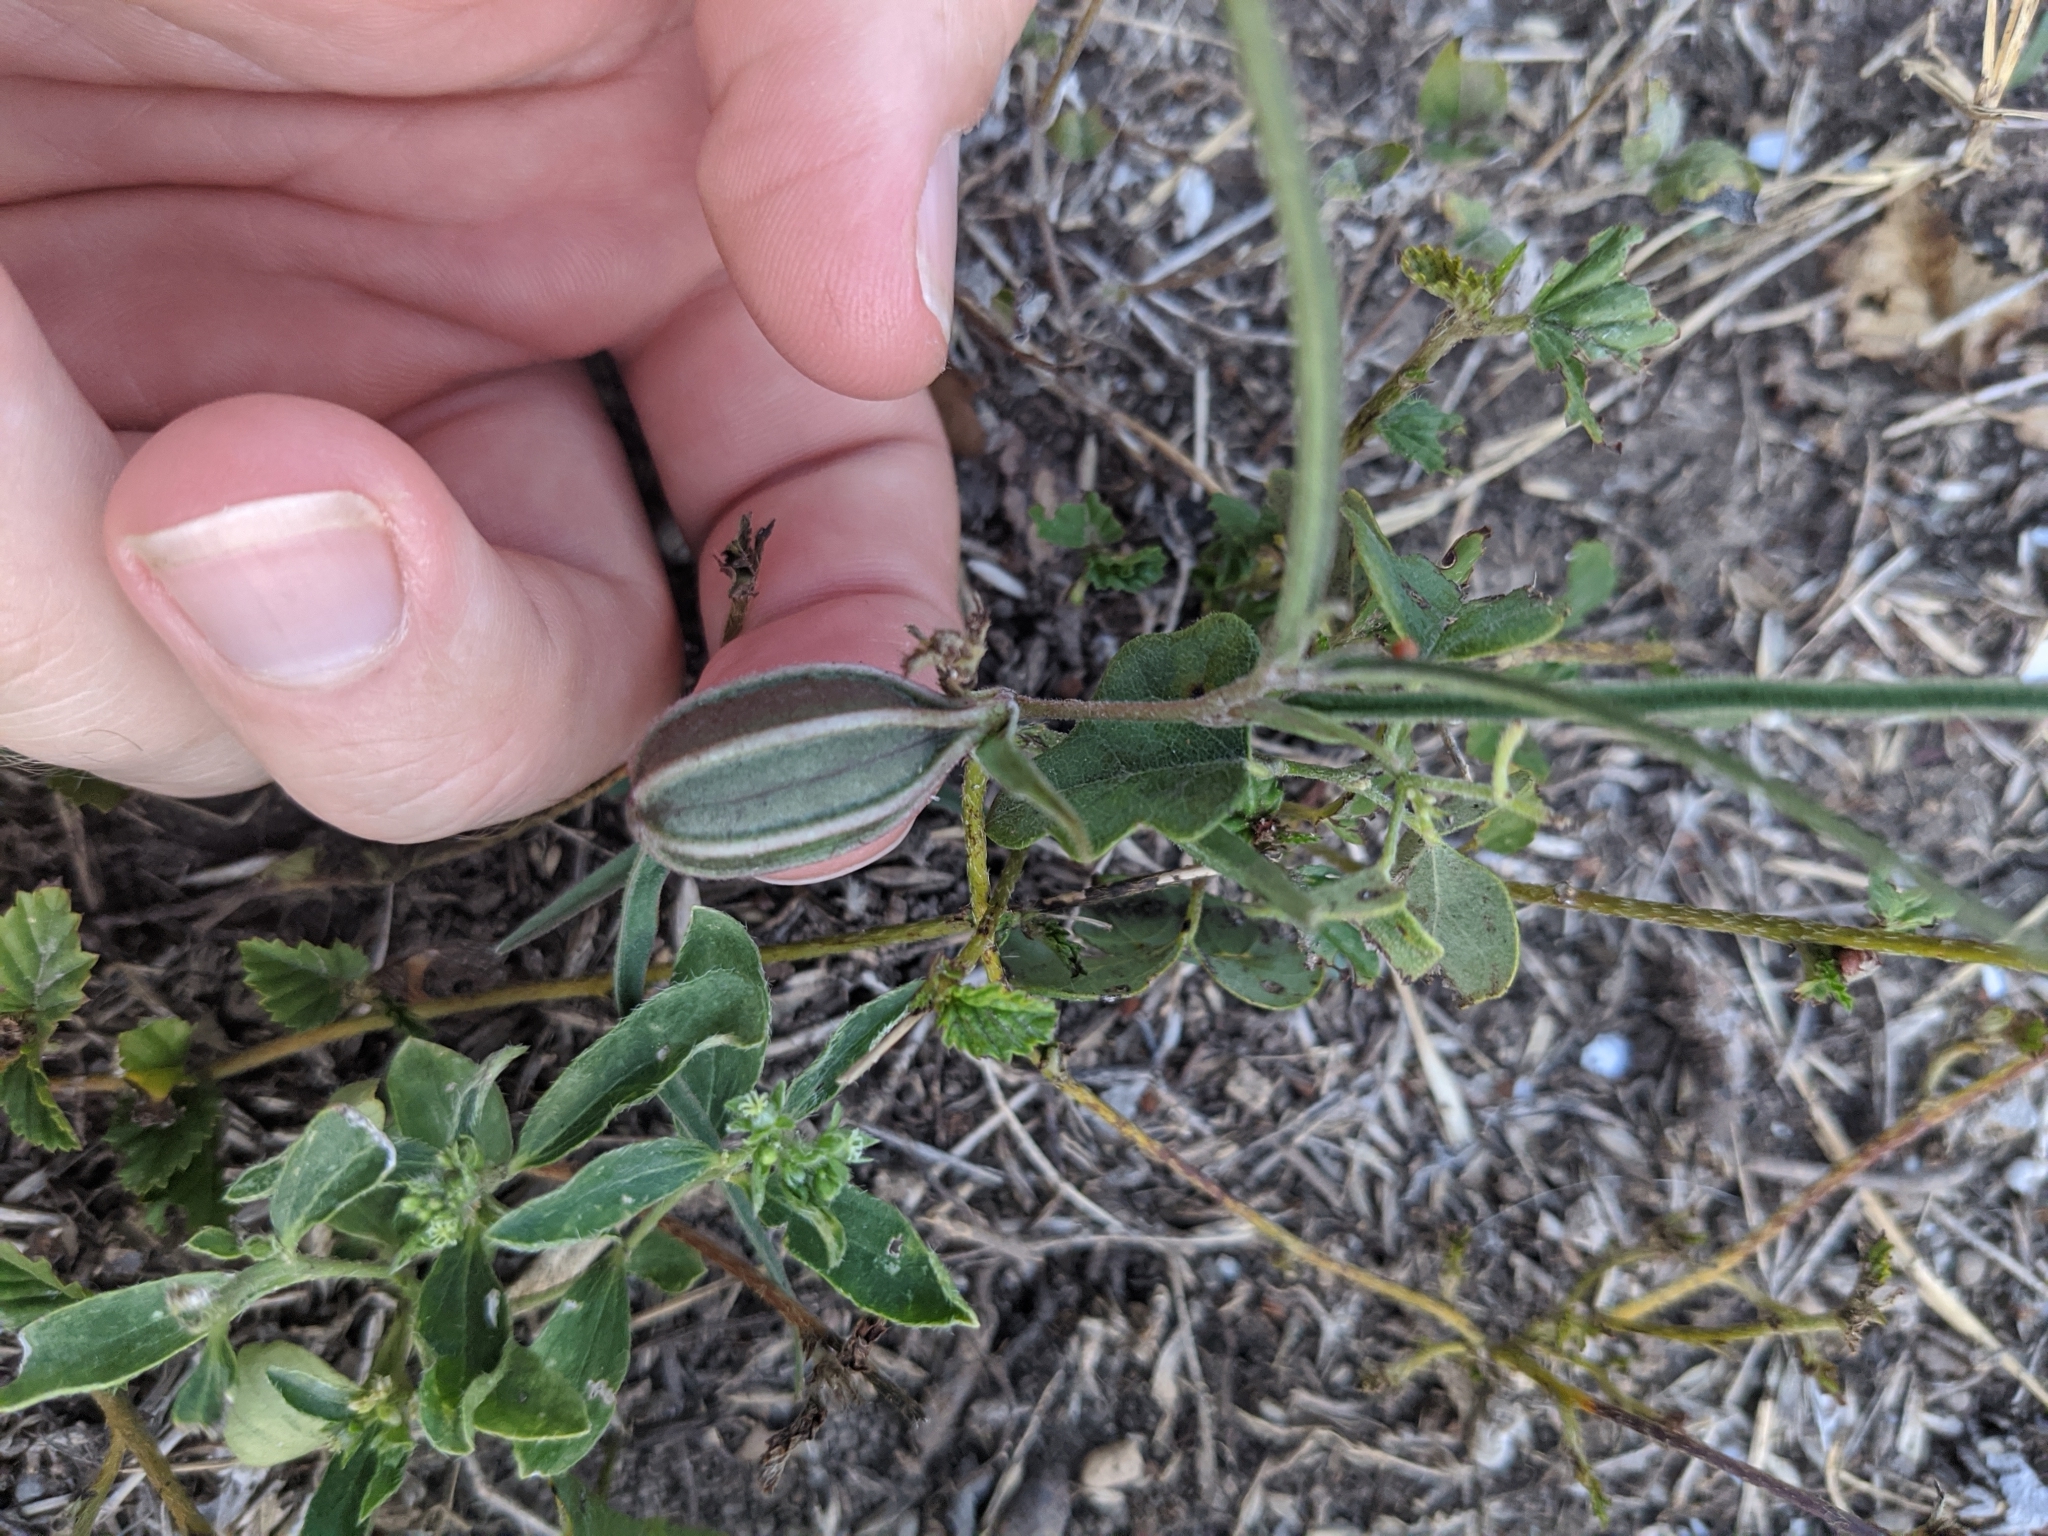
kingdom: Plantae
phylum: Tracheophyta
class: Magnoliopsida
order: Piperales
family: Aristolochiaceae
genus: Aristolochia
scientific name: Aristolochia erecta
